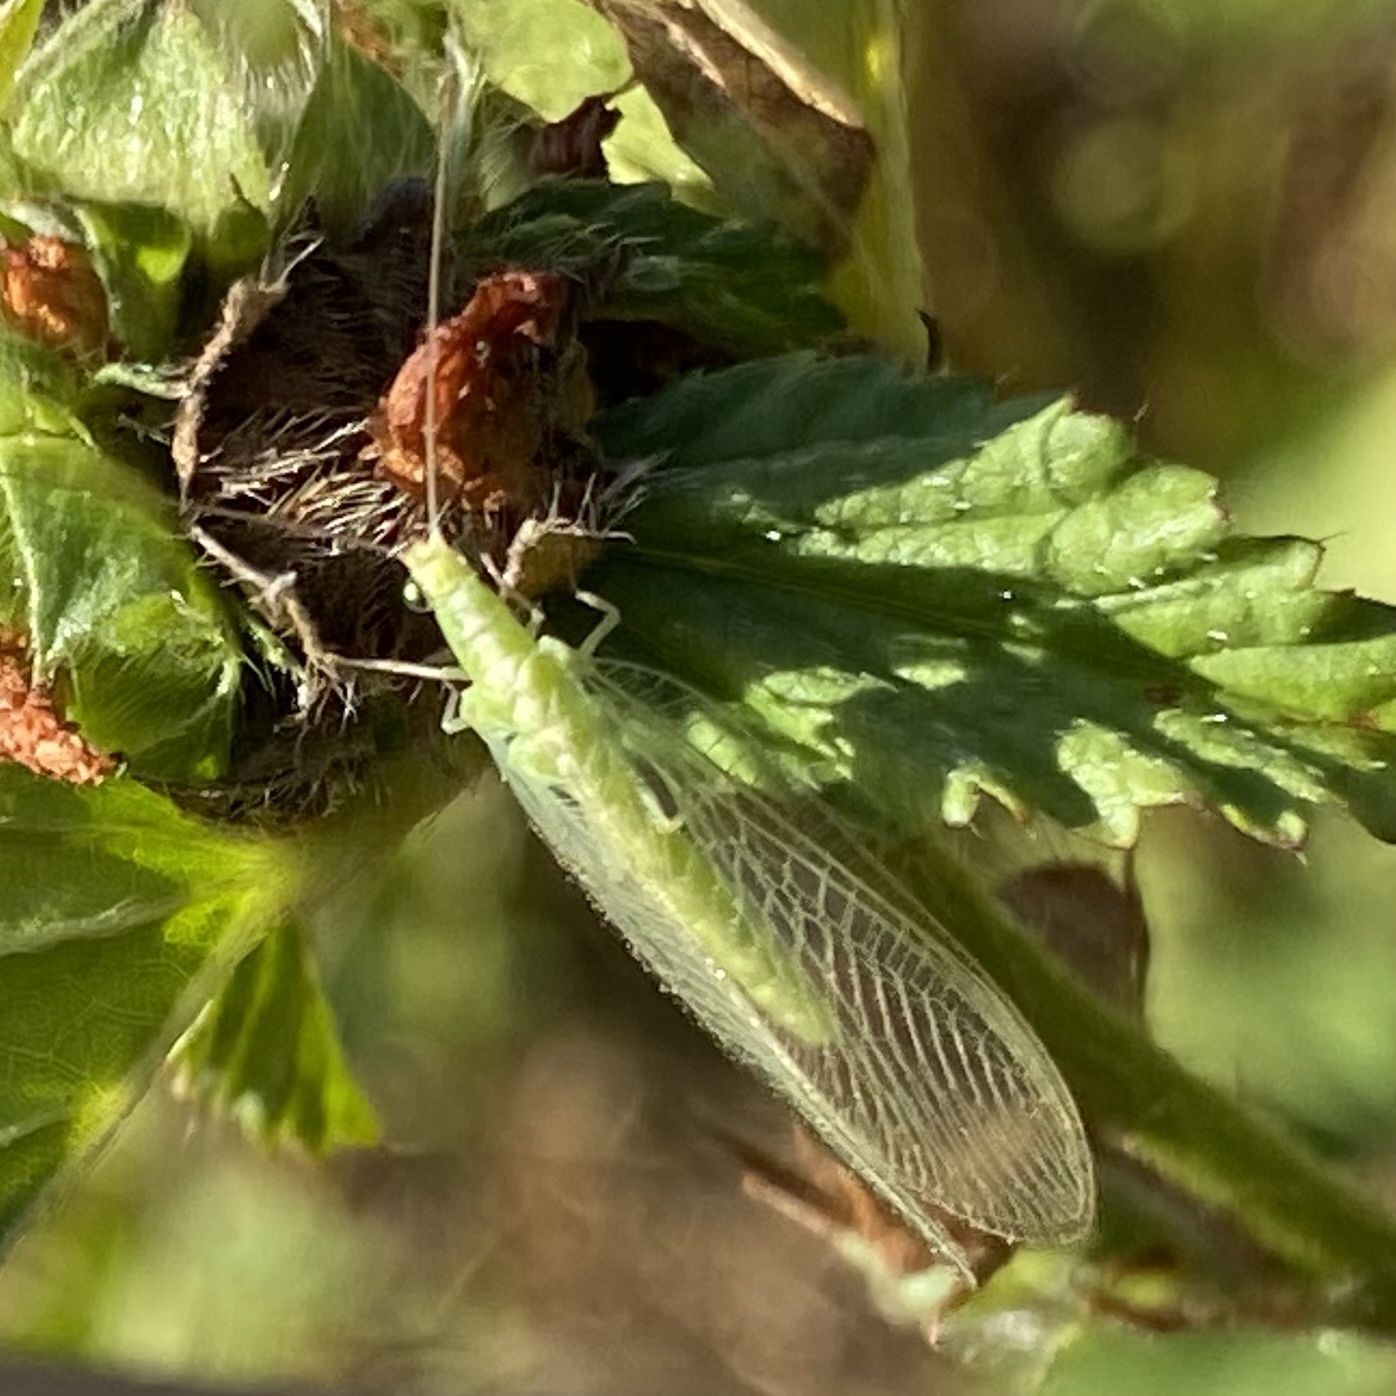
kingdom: Animalia
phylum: Arthropoda
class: Insecta
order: Neuroptera
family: Chrysopidae
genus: Chrysoperla
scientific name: Chrysoperla
